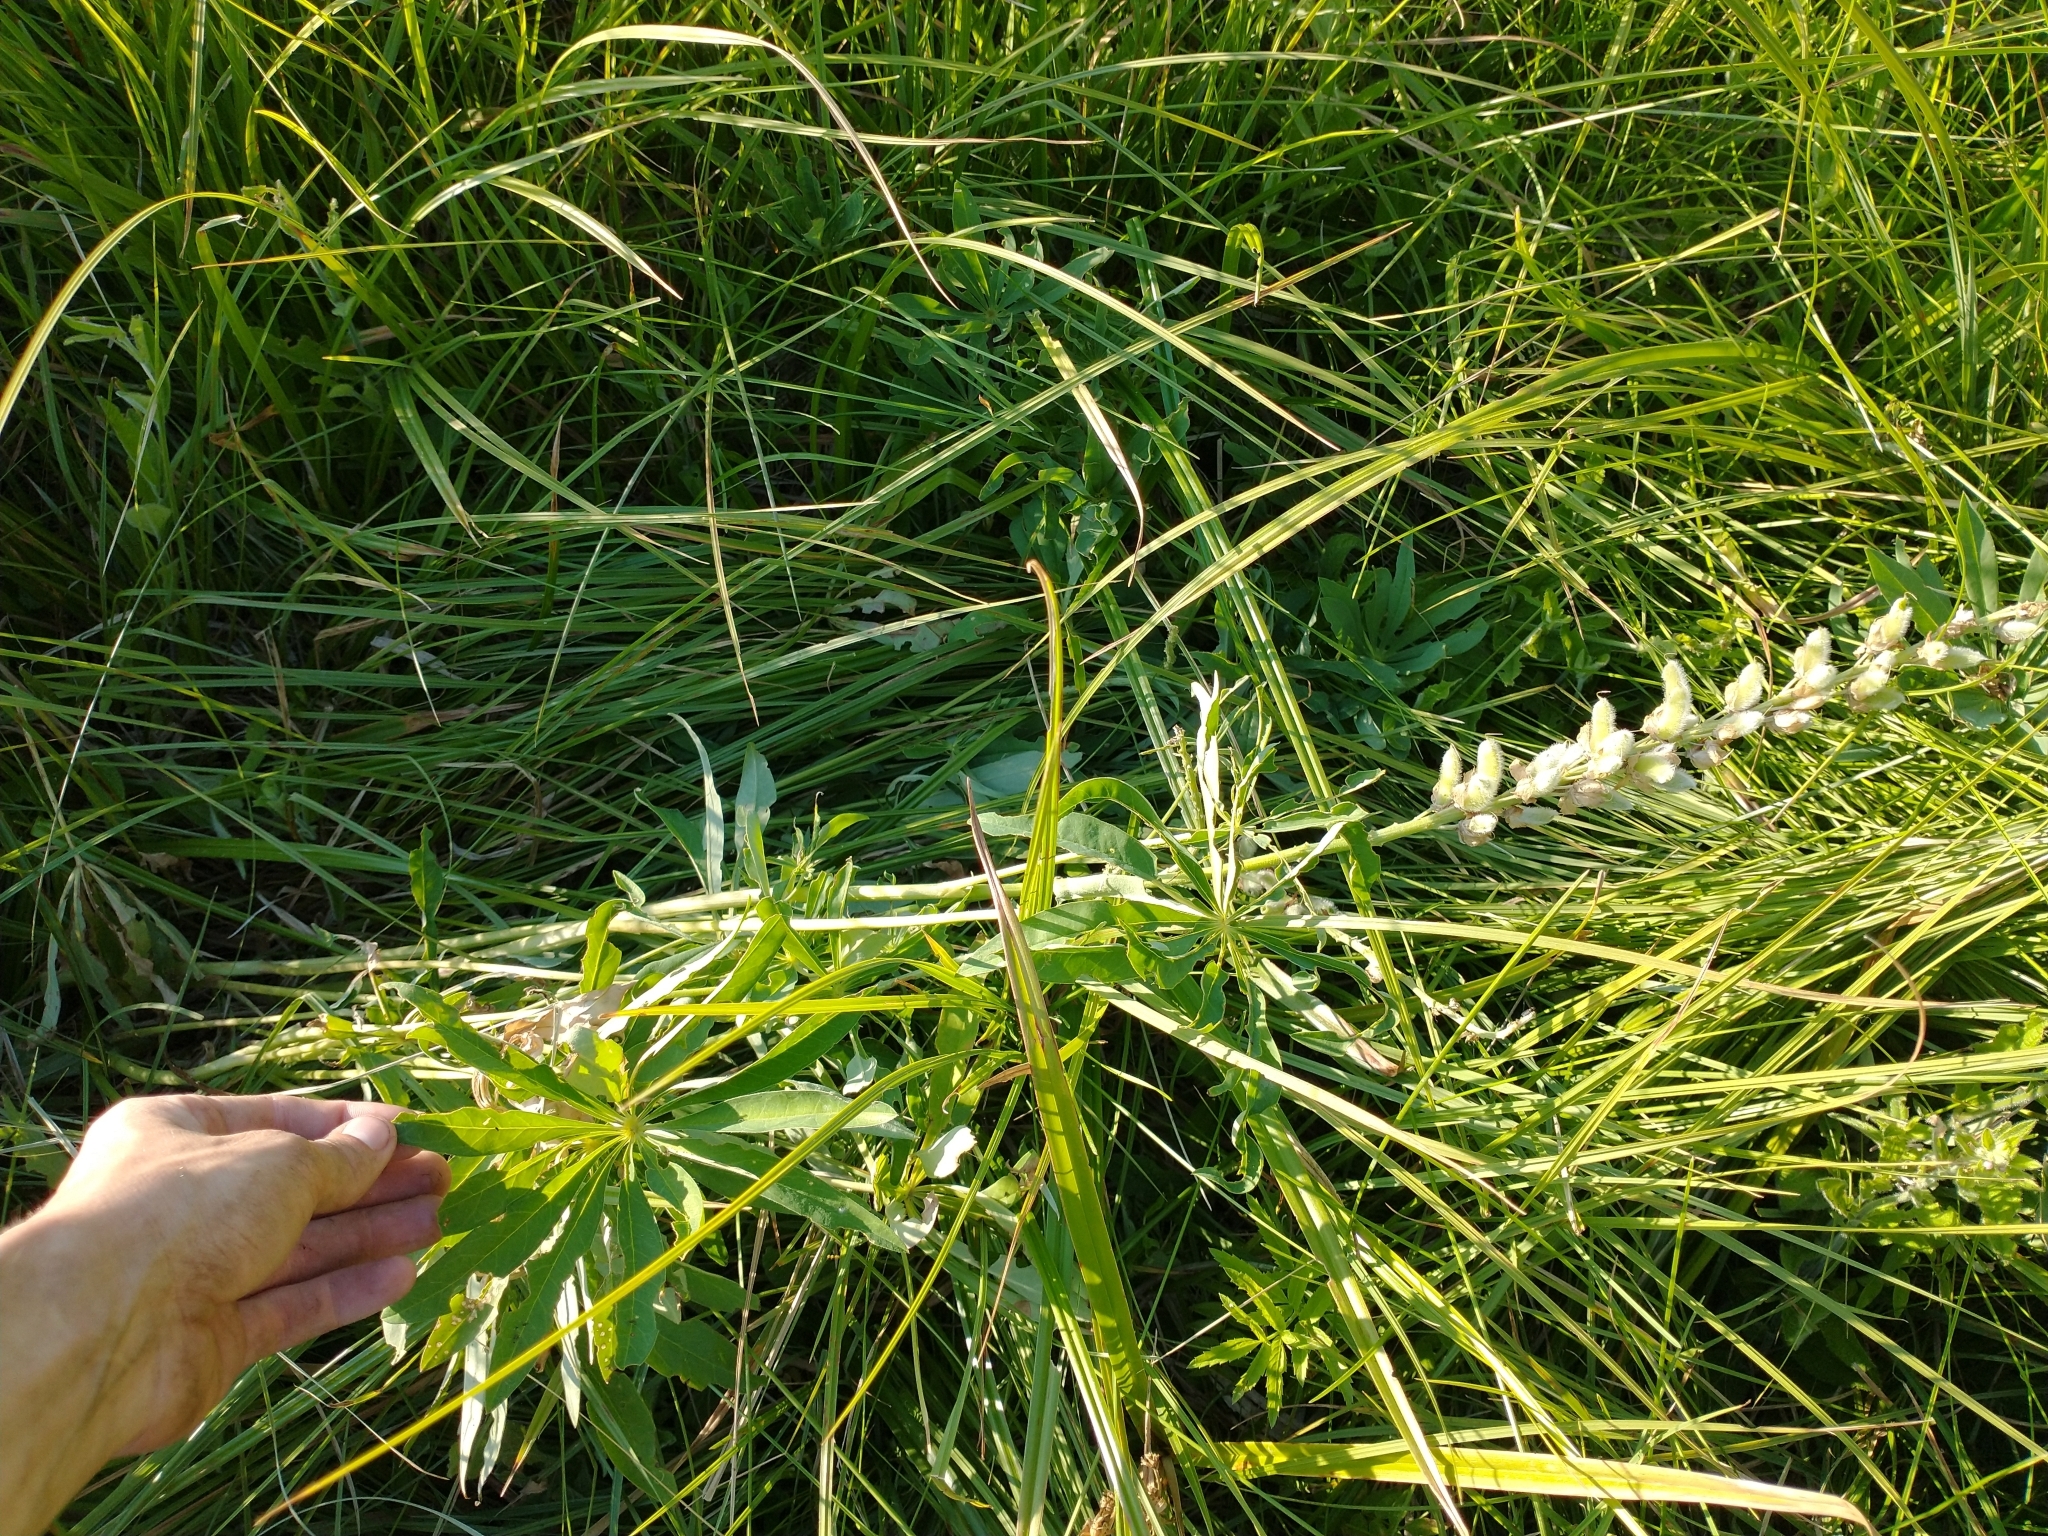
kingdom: Plantae
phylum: Tracheophyta
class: Magnoliopsida
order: Fabales
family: Fabaceae
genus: Lupinus
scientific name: Lupinus polyphyllus
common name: Garden lupin
